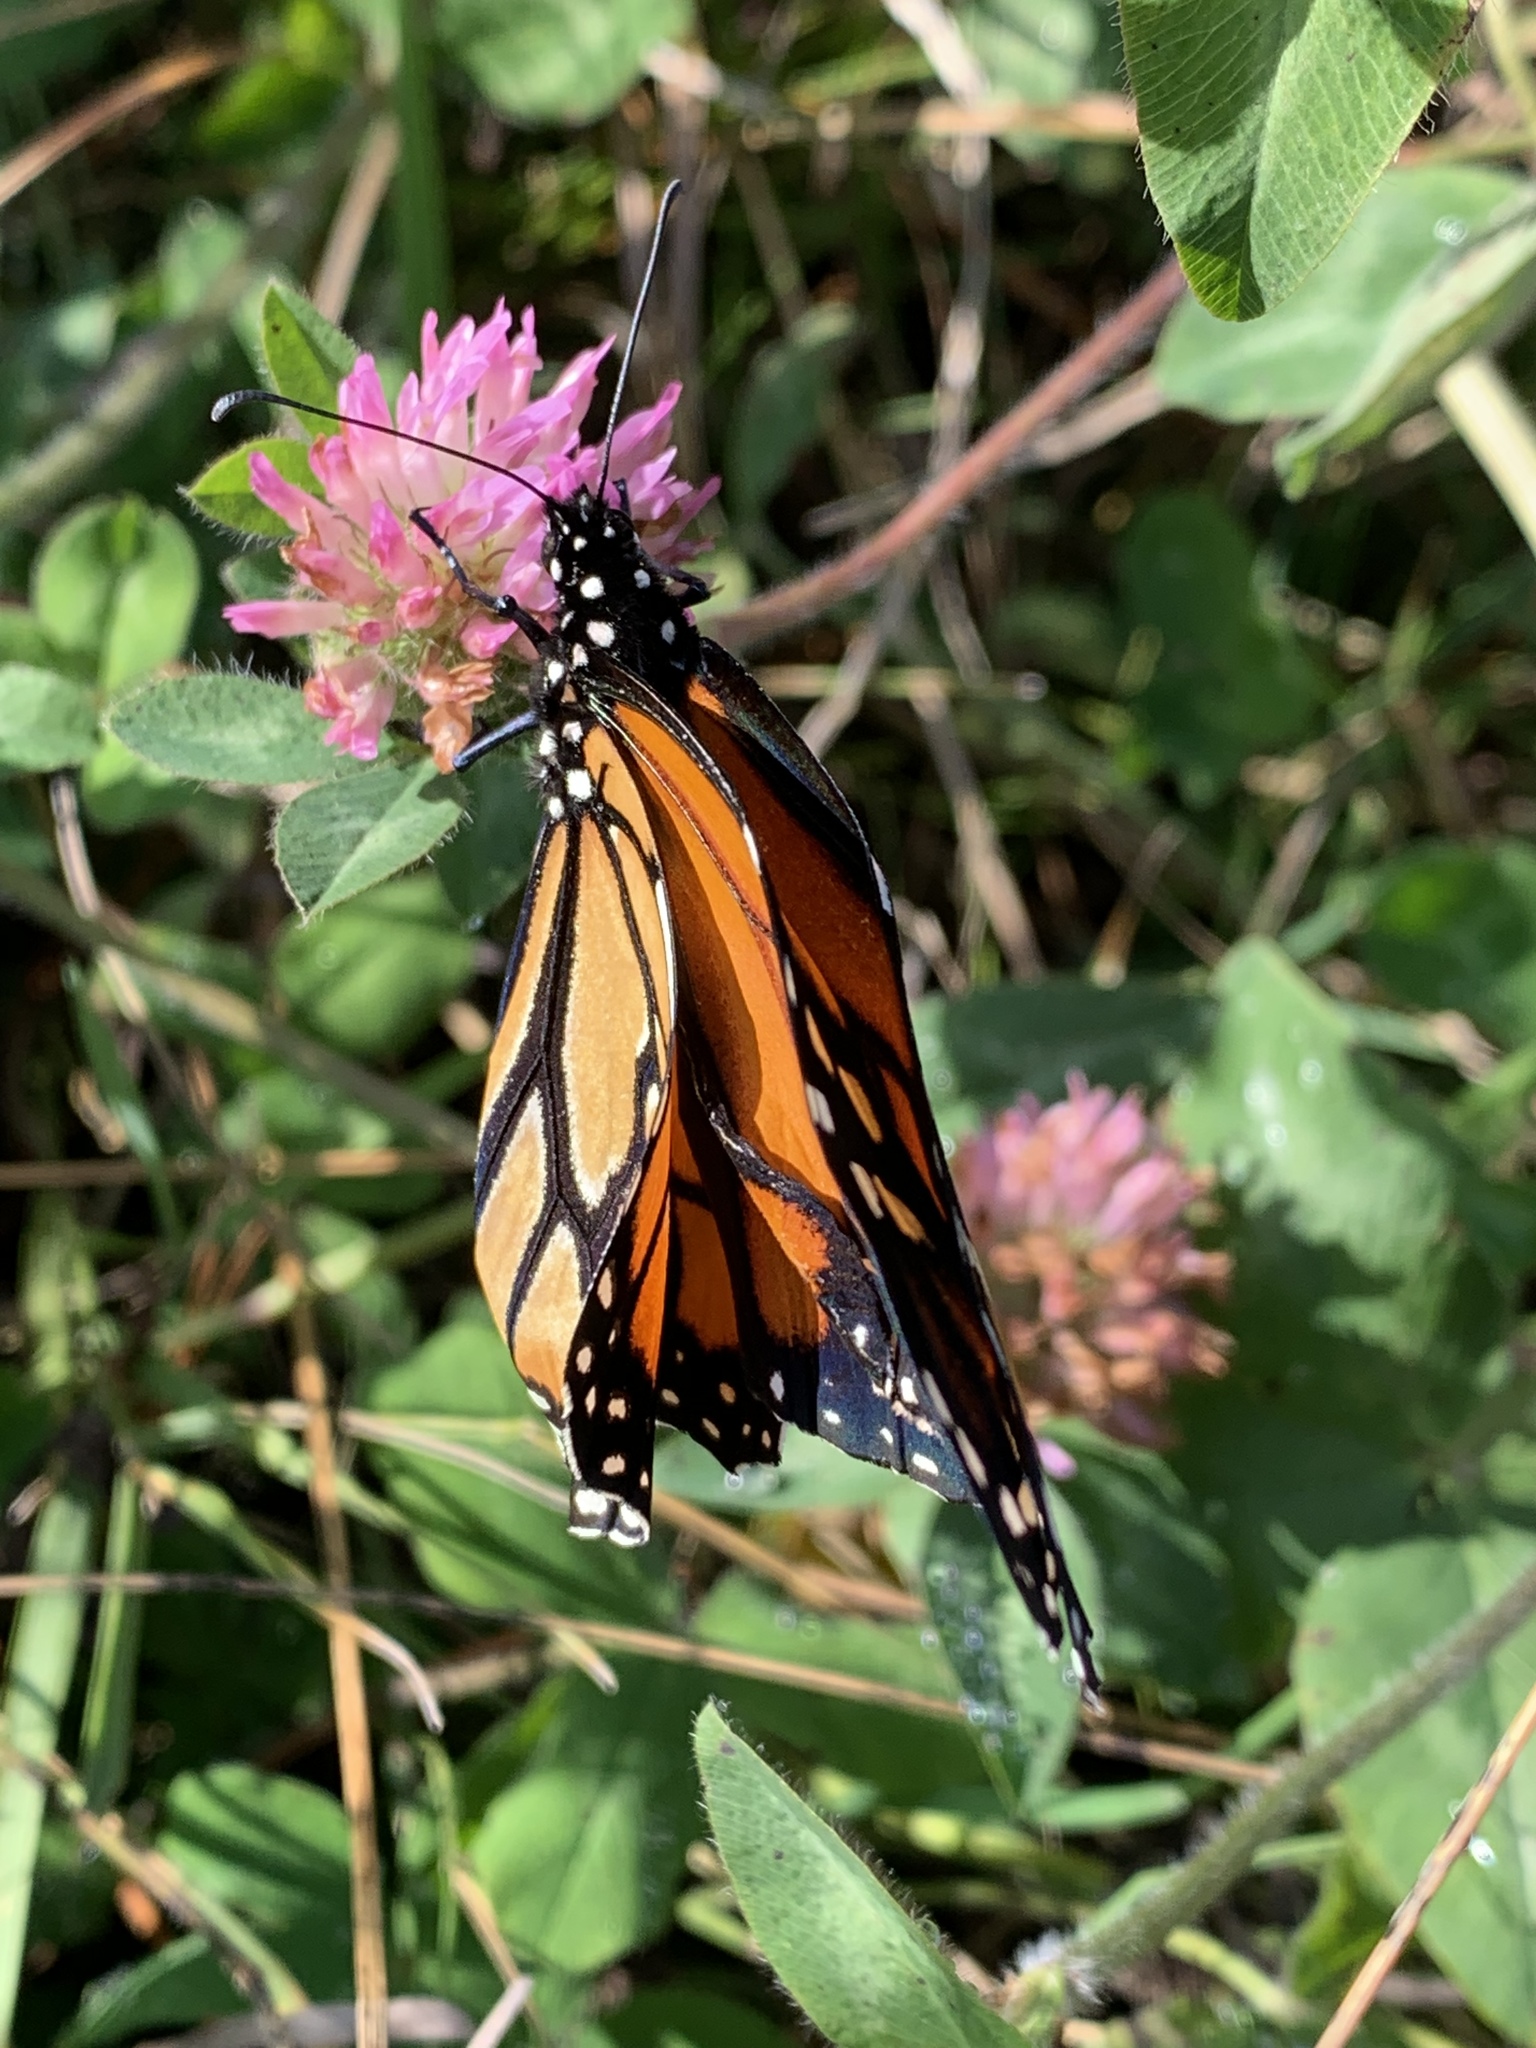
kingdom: Animalia
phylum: Arthropoda
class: Insecta
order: Lepidoptera
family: Nymphalidae
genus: Danaus
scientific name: Danaus plexippus
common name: Monarch
